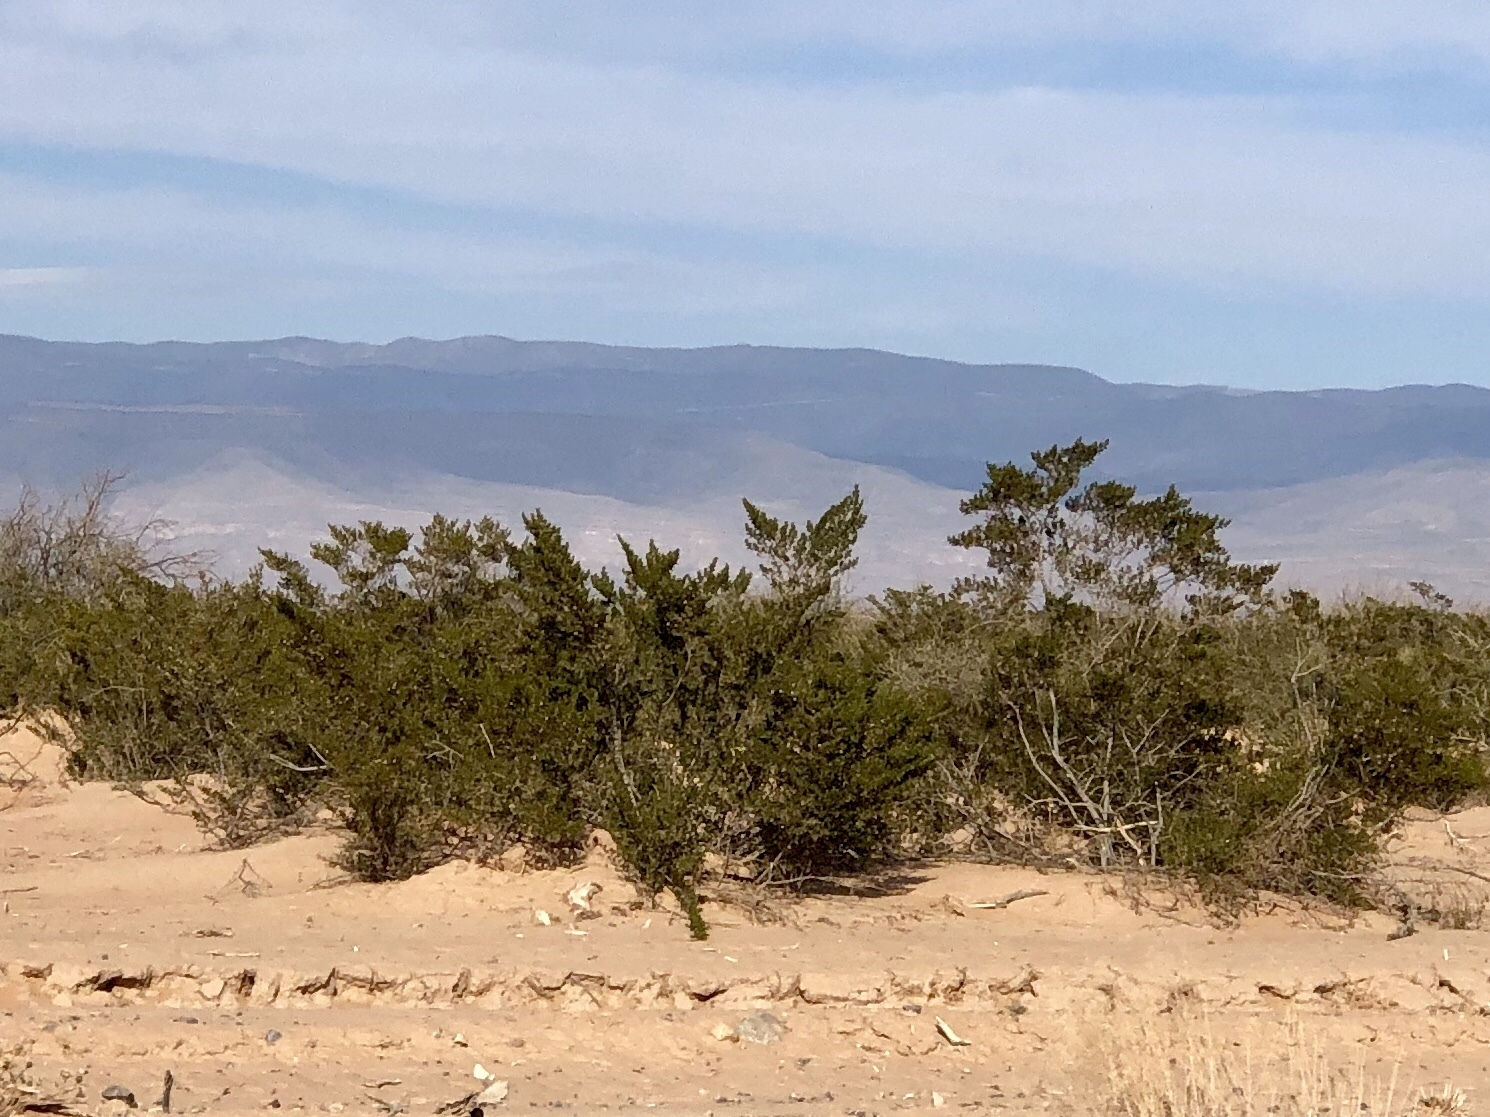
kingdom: Plantae
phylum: Tracheophyta
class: Magnoliopsida
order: Zygophyllales
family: Zygophyllaceae
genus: Larrea
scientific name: Larrea tridentata
